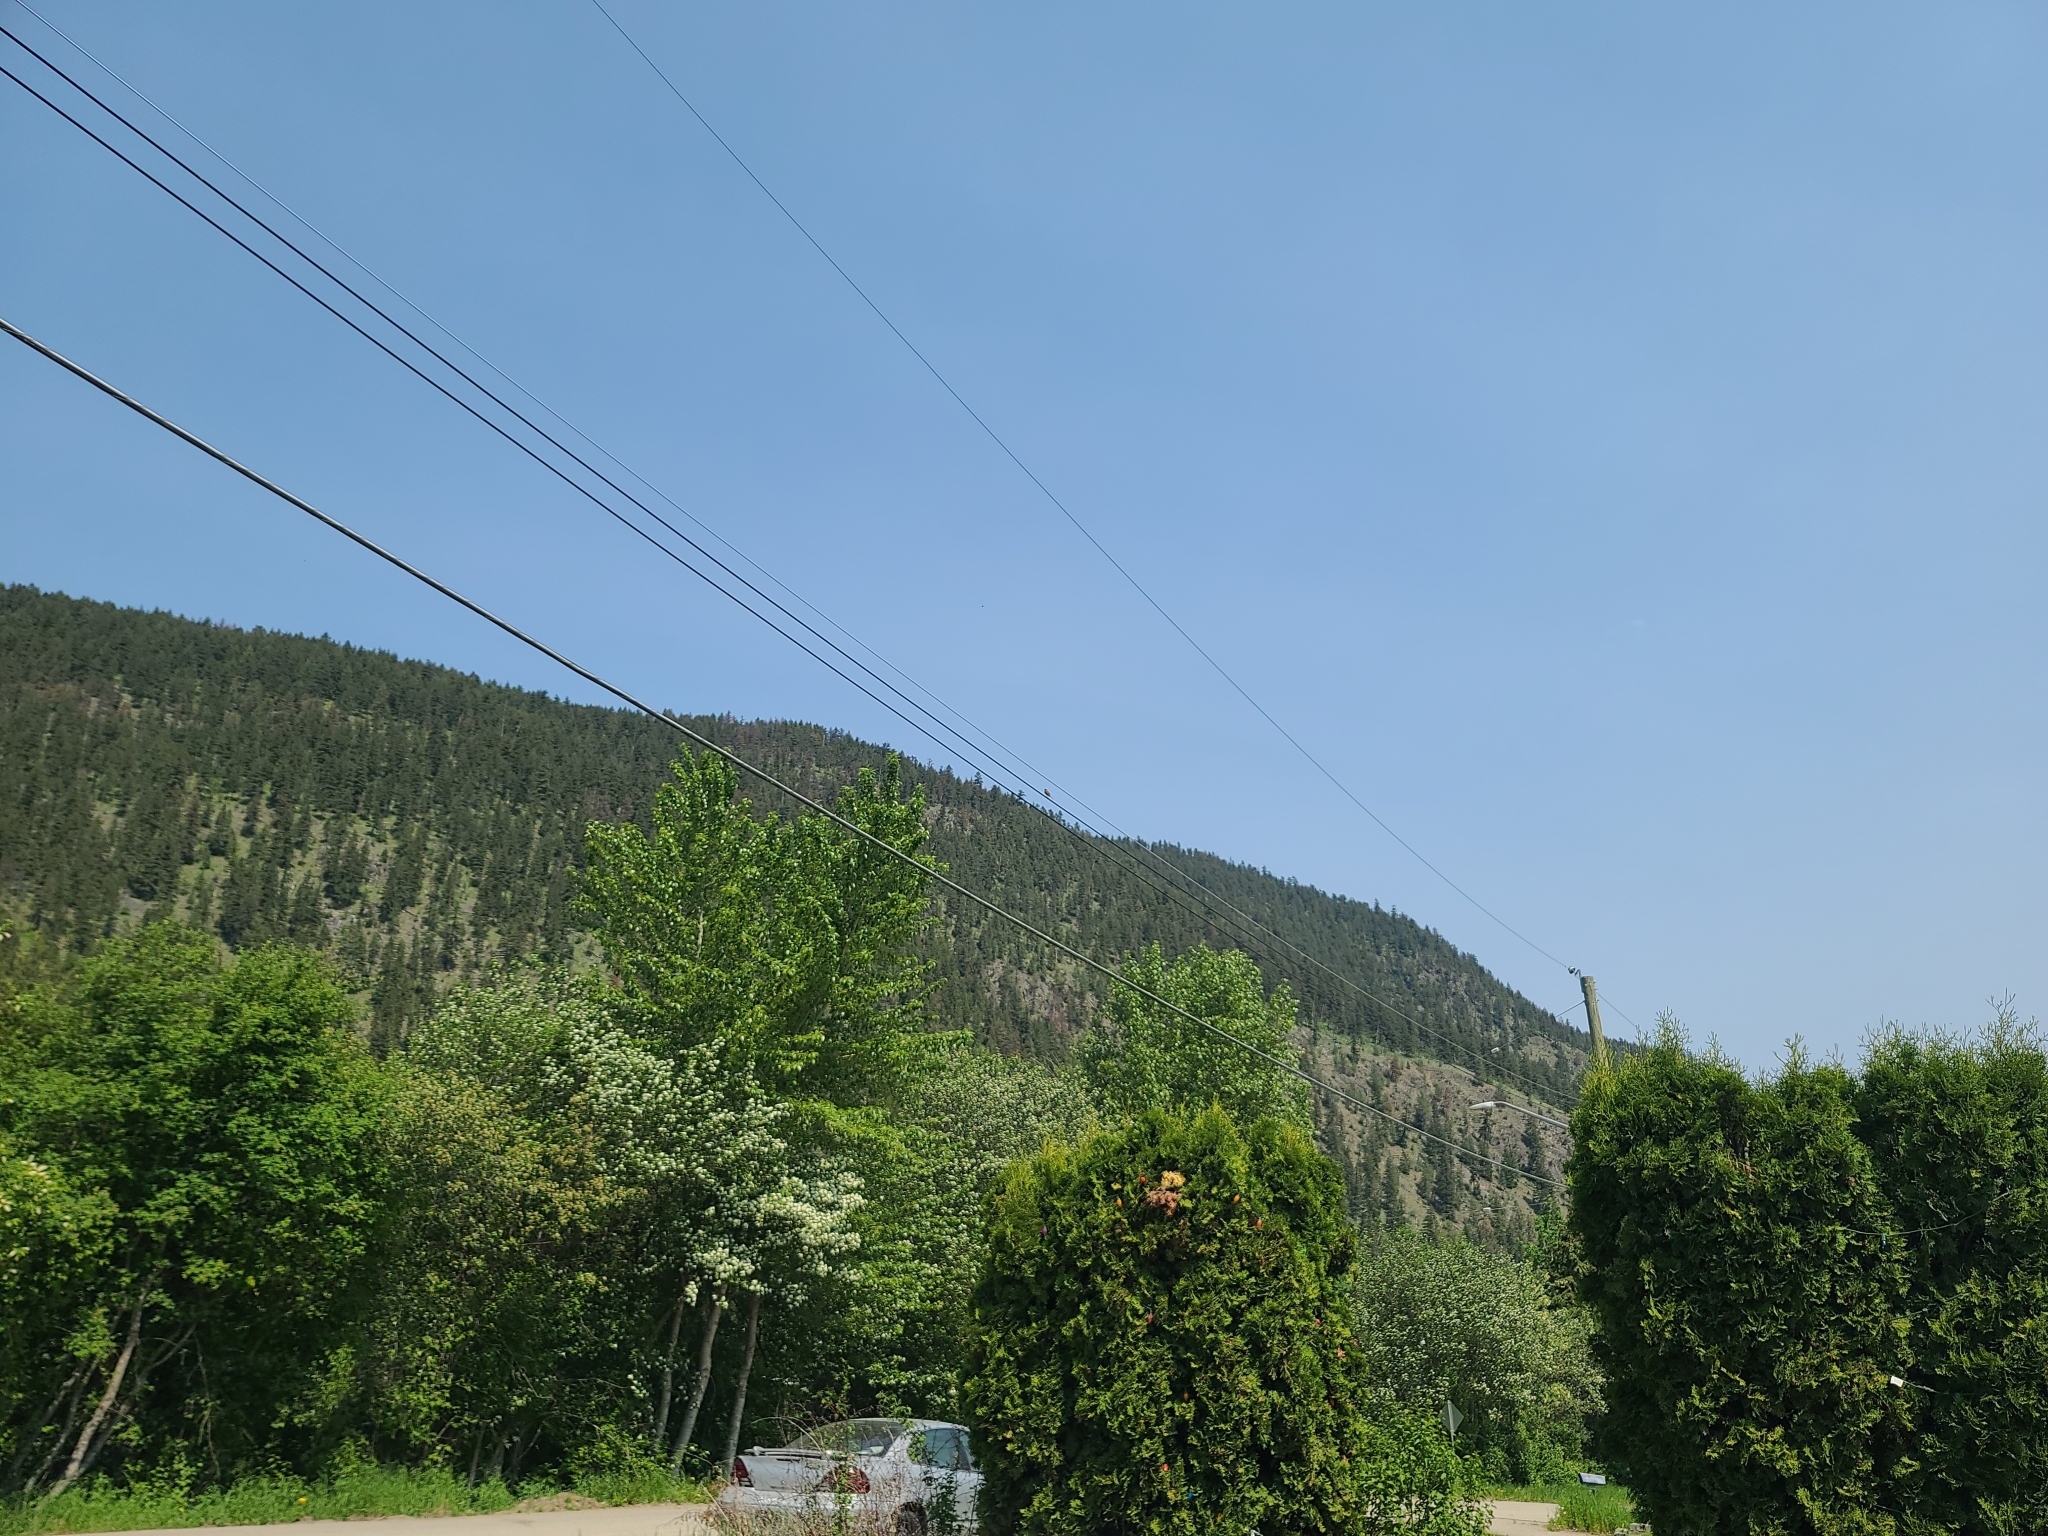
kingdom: Animalia
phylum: Chordata
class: Aves
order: Passeriformes
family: Passerellidae
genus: Melospiza
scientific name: Melospiza melodia
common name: Song sparrow
